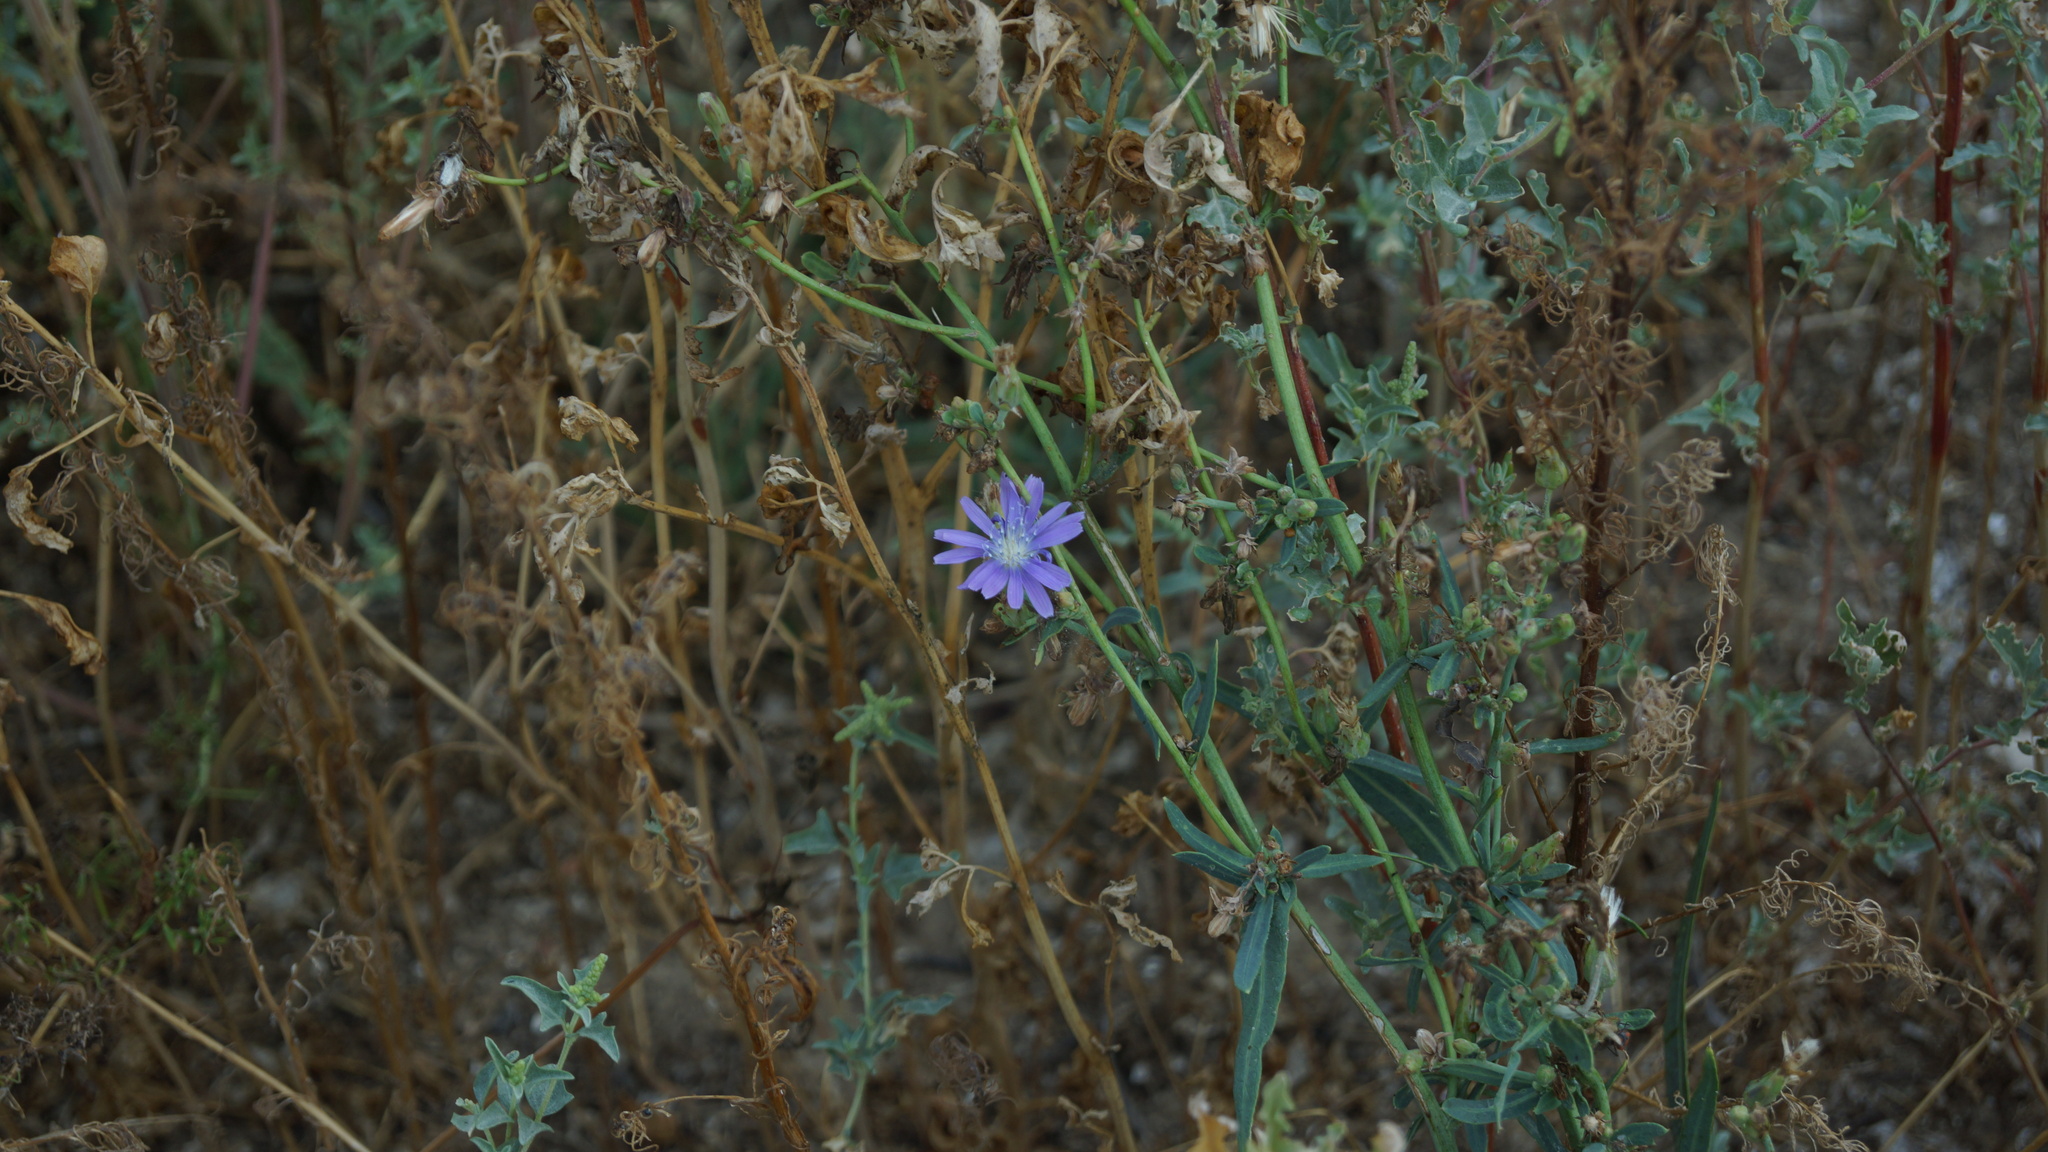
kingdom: Plantae
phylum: Tracheophyta
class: Magnoliopsida
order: Asterales
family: Asteraceae
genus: Cichorium
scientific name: Cichorium intybus
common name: Chicory
